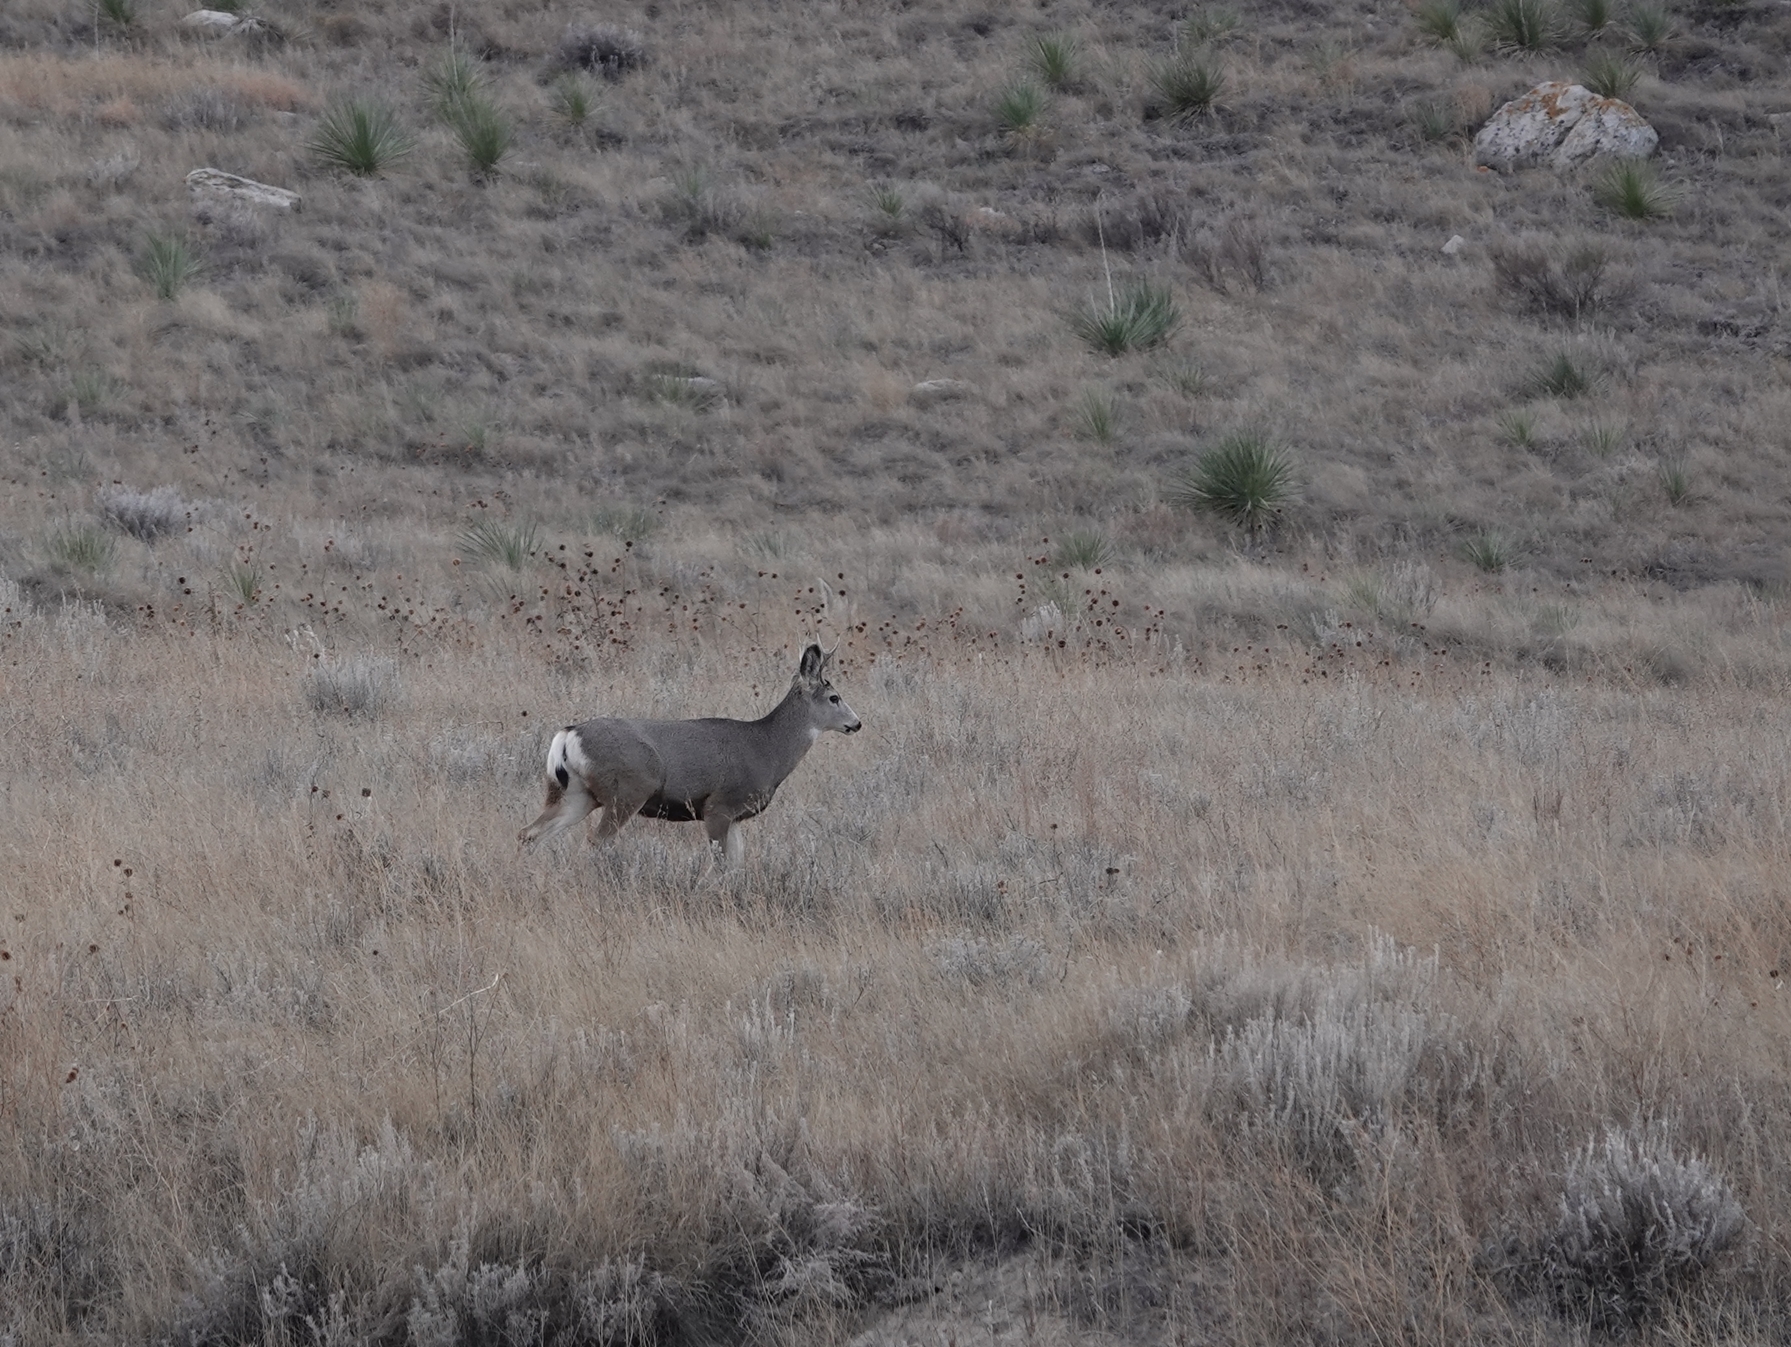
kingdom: Animalia
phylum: Chordata
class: Mammalia
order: Artiodactyla
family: Cervidae
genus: Odocoileus
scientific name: Odocoileus hemionus
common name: Mule deer
